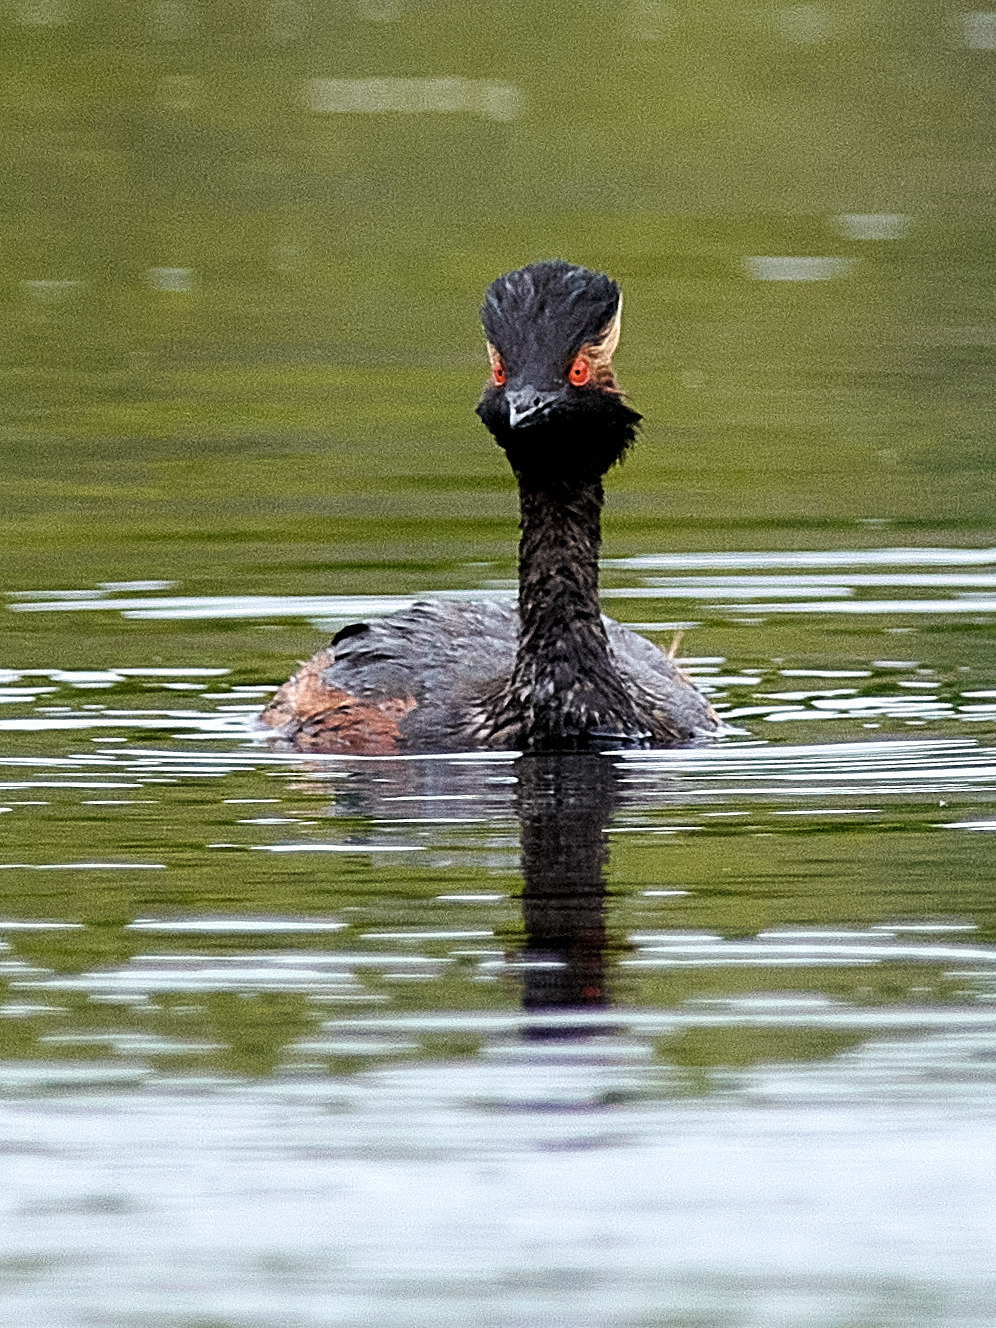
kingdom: Animalia
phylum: Chordata
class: Aves
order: Podicipediformes
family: Podicipedidae
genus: Podiceps
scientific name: Podiceps nigricollis
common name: Black-necked grebe
